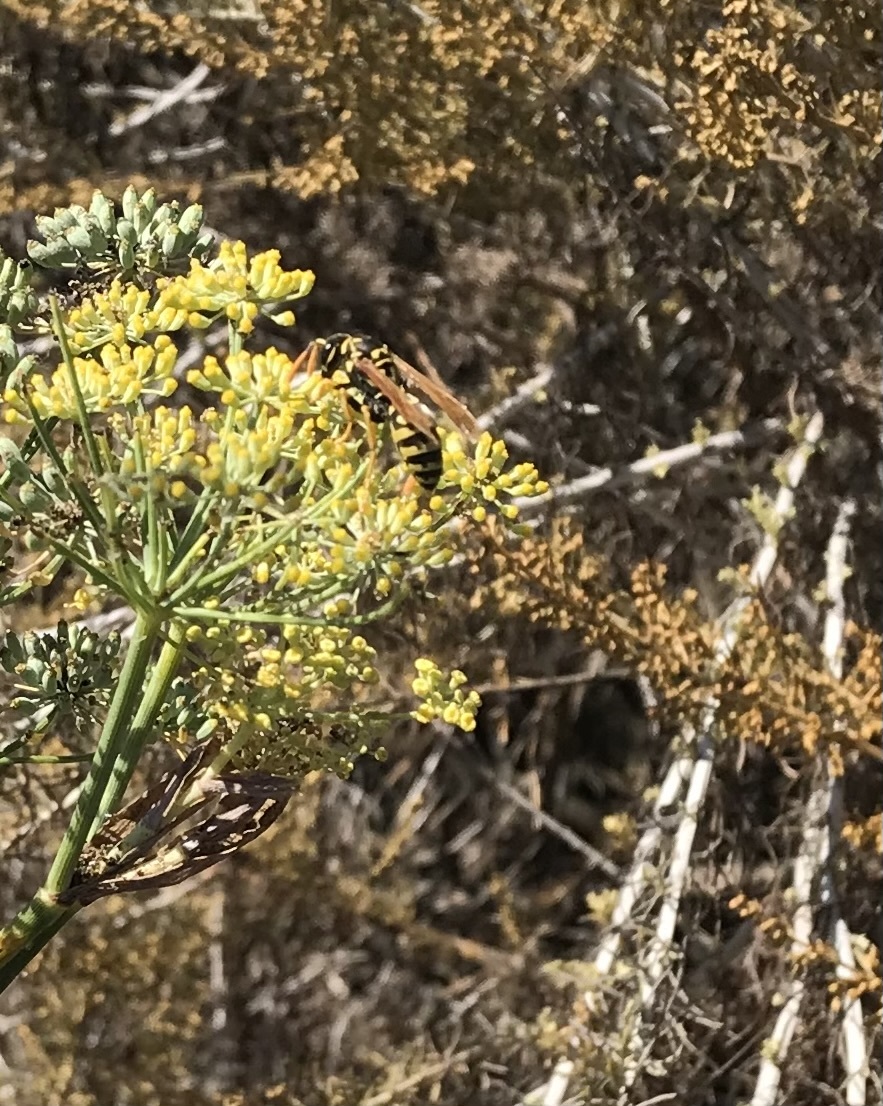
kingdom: Animalia
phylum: Arthropoda
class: Insecta
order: Hymenoptera
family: Eumenidae
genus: Polistes
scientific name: Polistes dominula
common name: Paper wasp
